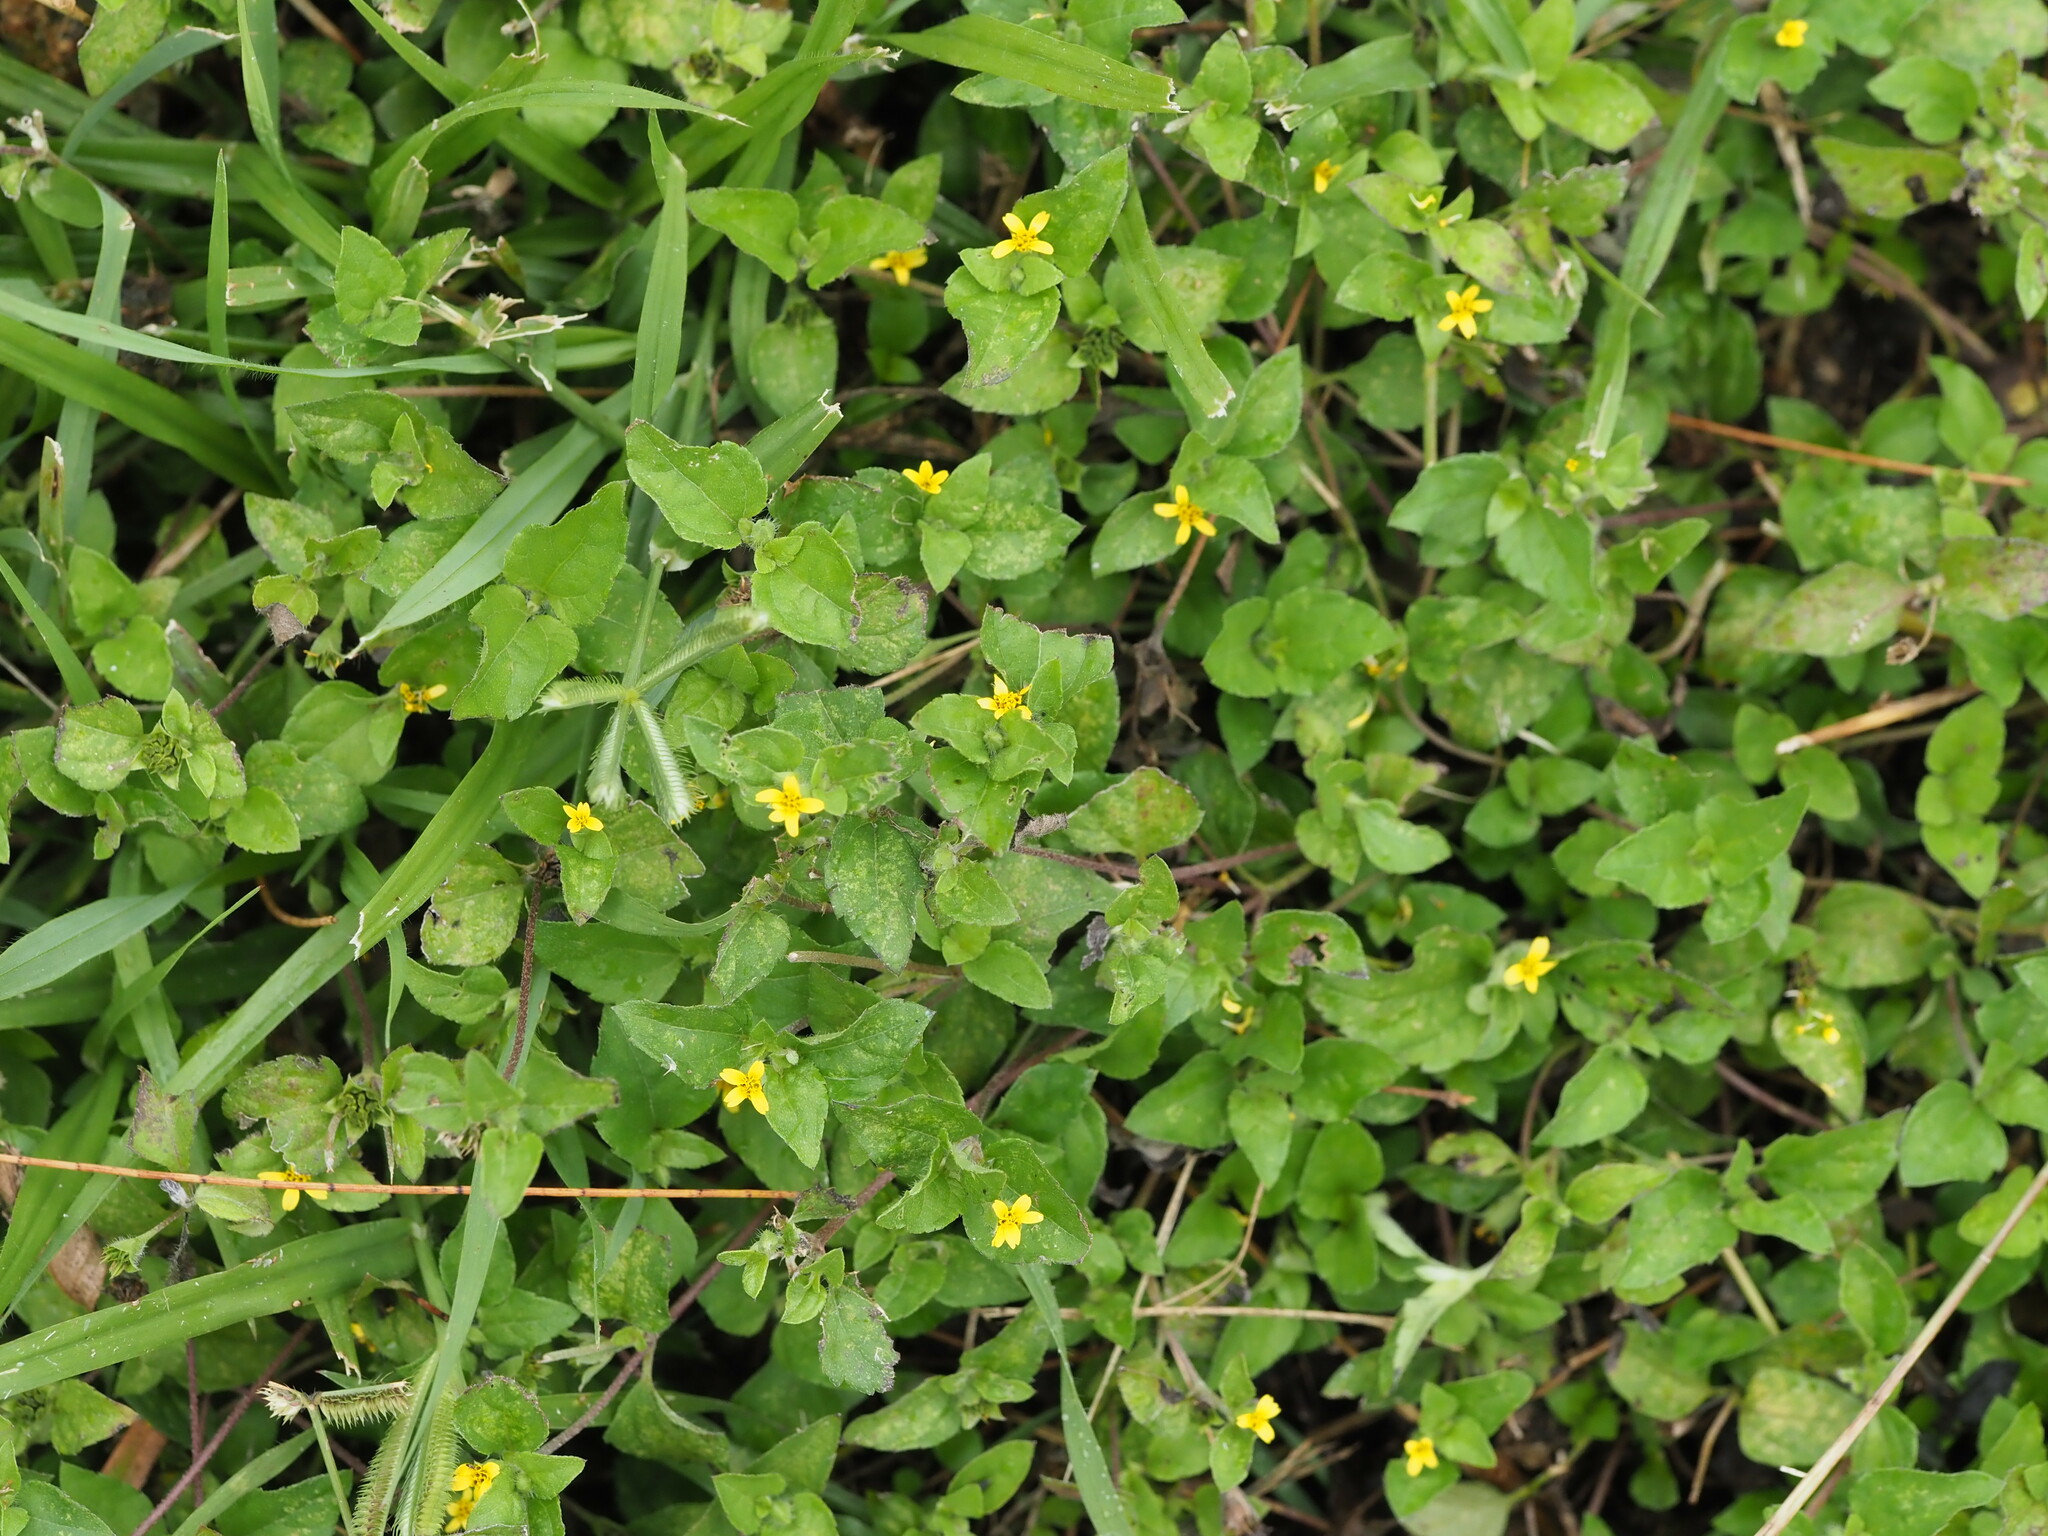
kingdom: Plantae
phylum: Tracheophyta
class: Magnoliopsida
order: Asterales
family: Asteraceae
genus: Calyptocarpus
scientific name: Calyptocarpus vialis
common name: Straggler daisy
